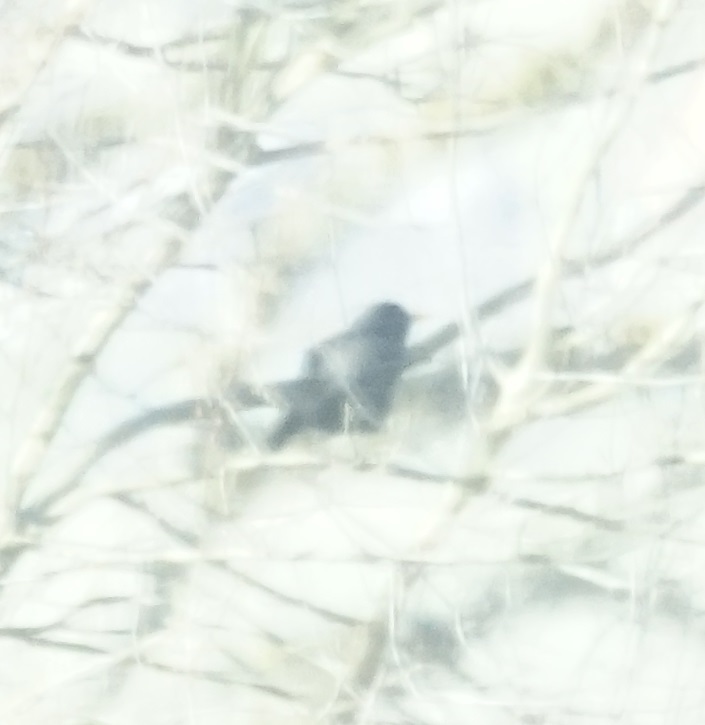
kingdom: Animalia
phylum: Chordata
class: Aves
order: Passeriformes
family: Turdidae
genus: Turdus
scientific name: Turdus merula
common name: Common blackbird
